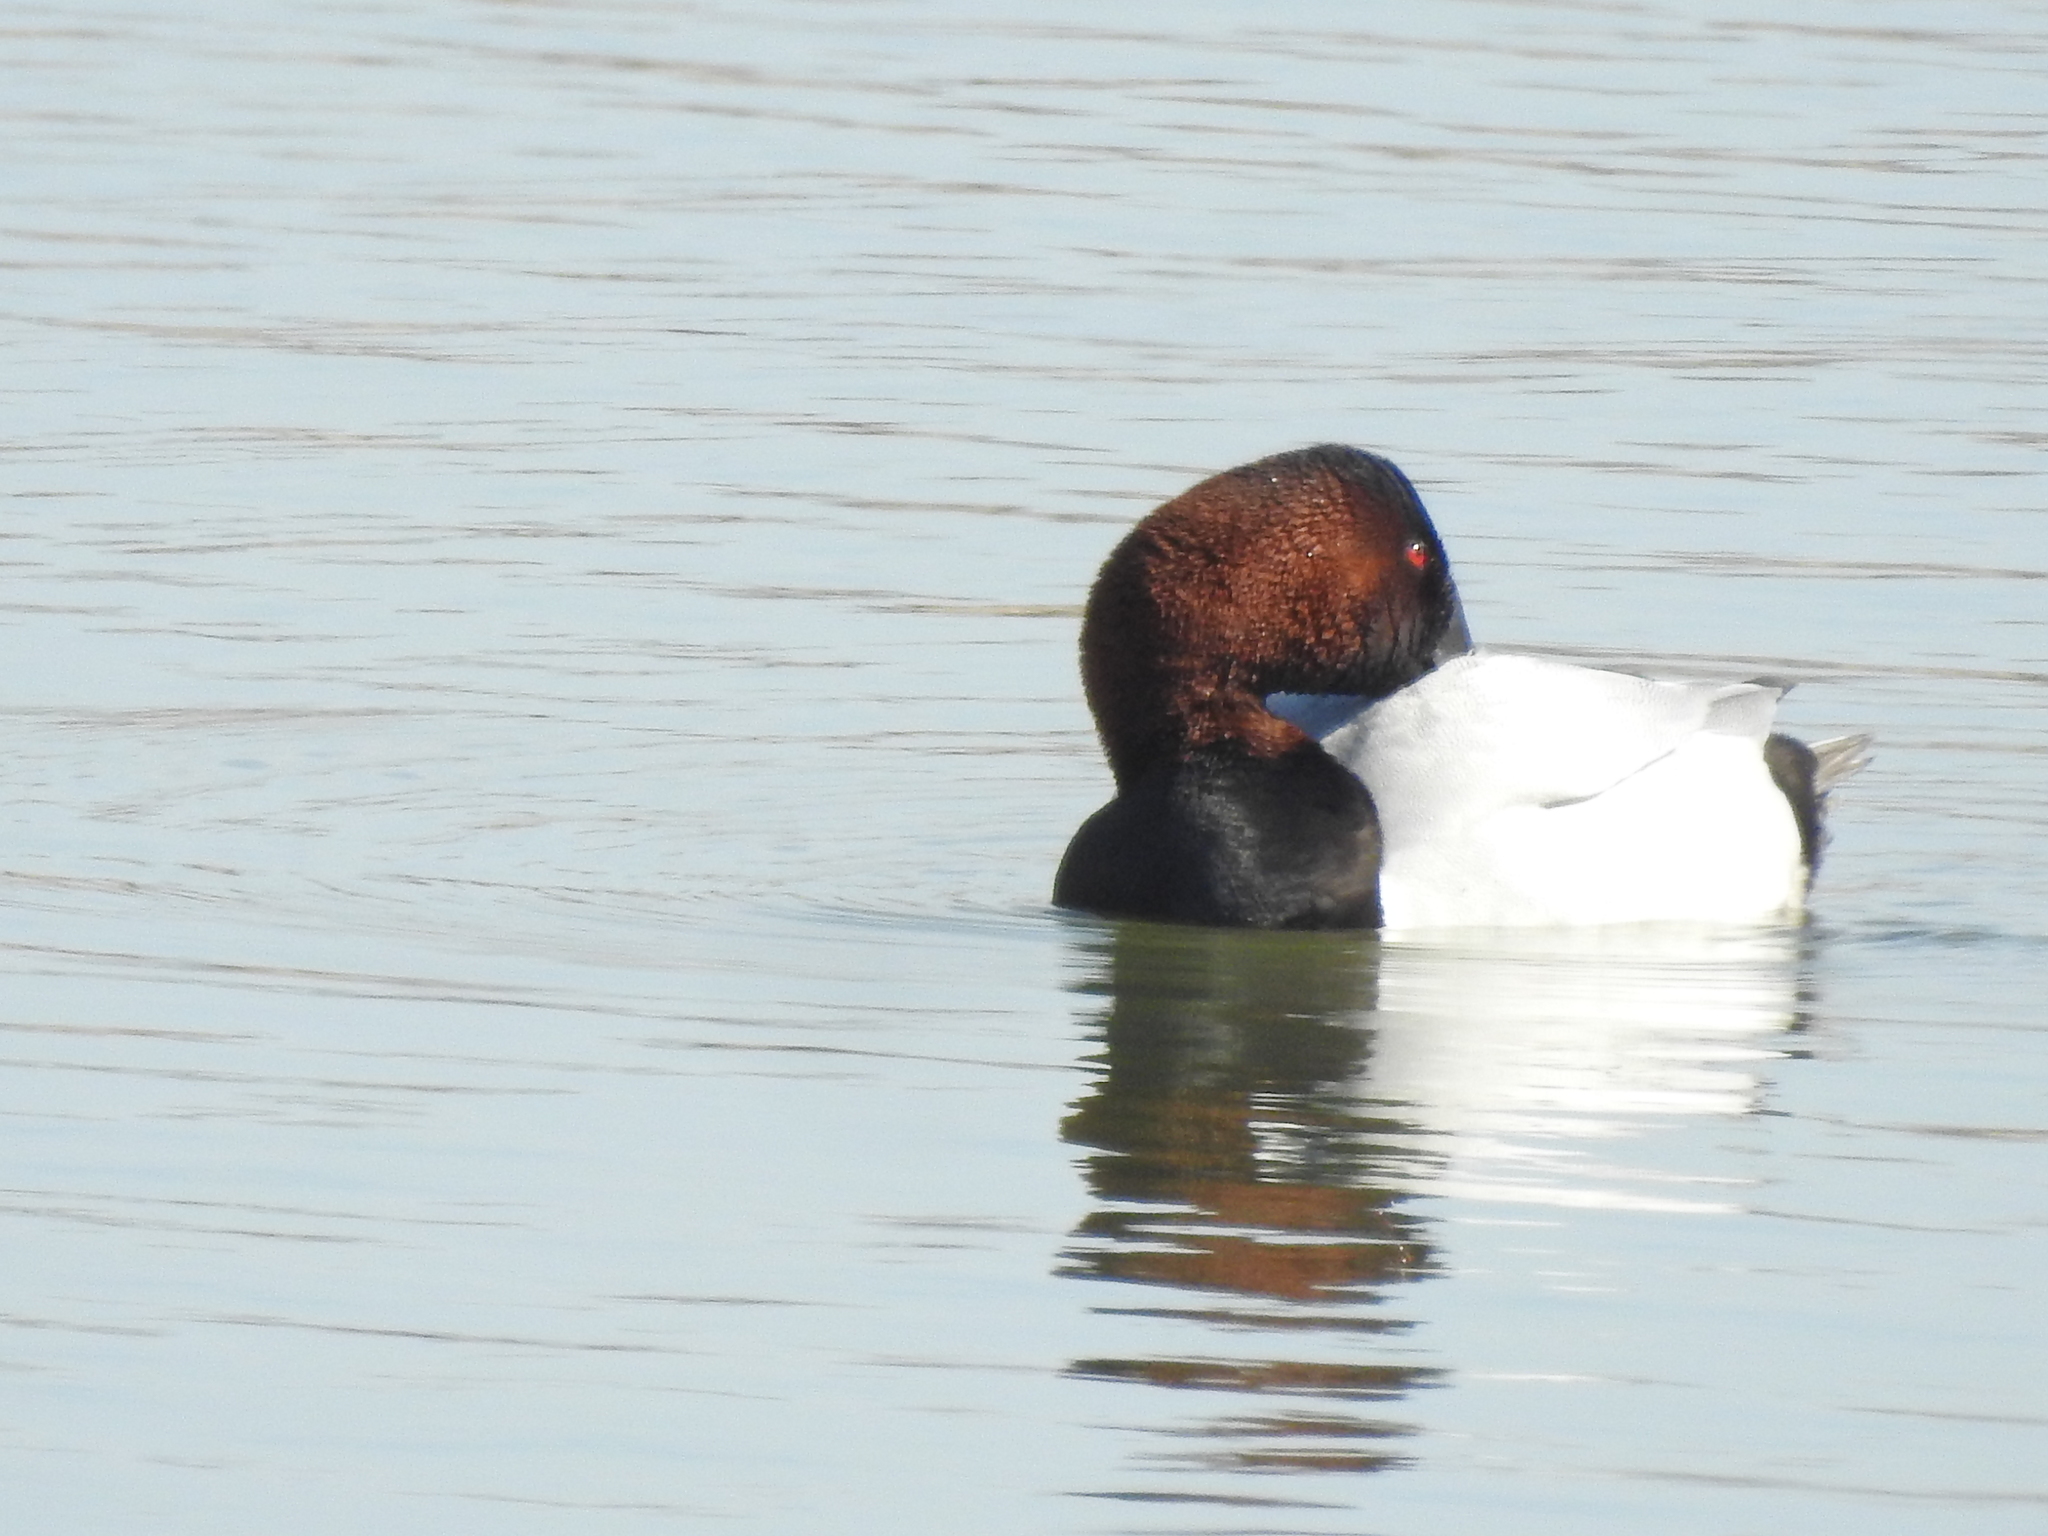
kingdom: Animalia
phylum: Chordata
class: Aves
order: Anseriformes
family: Anatidae
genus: Aythya
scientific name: Aythya valisineria
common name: Canvasback
